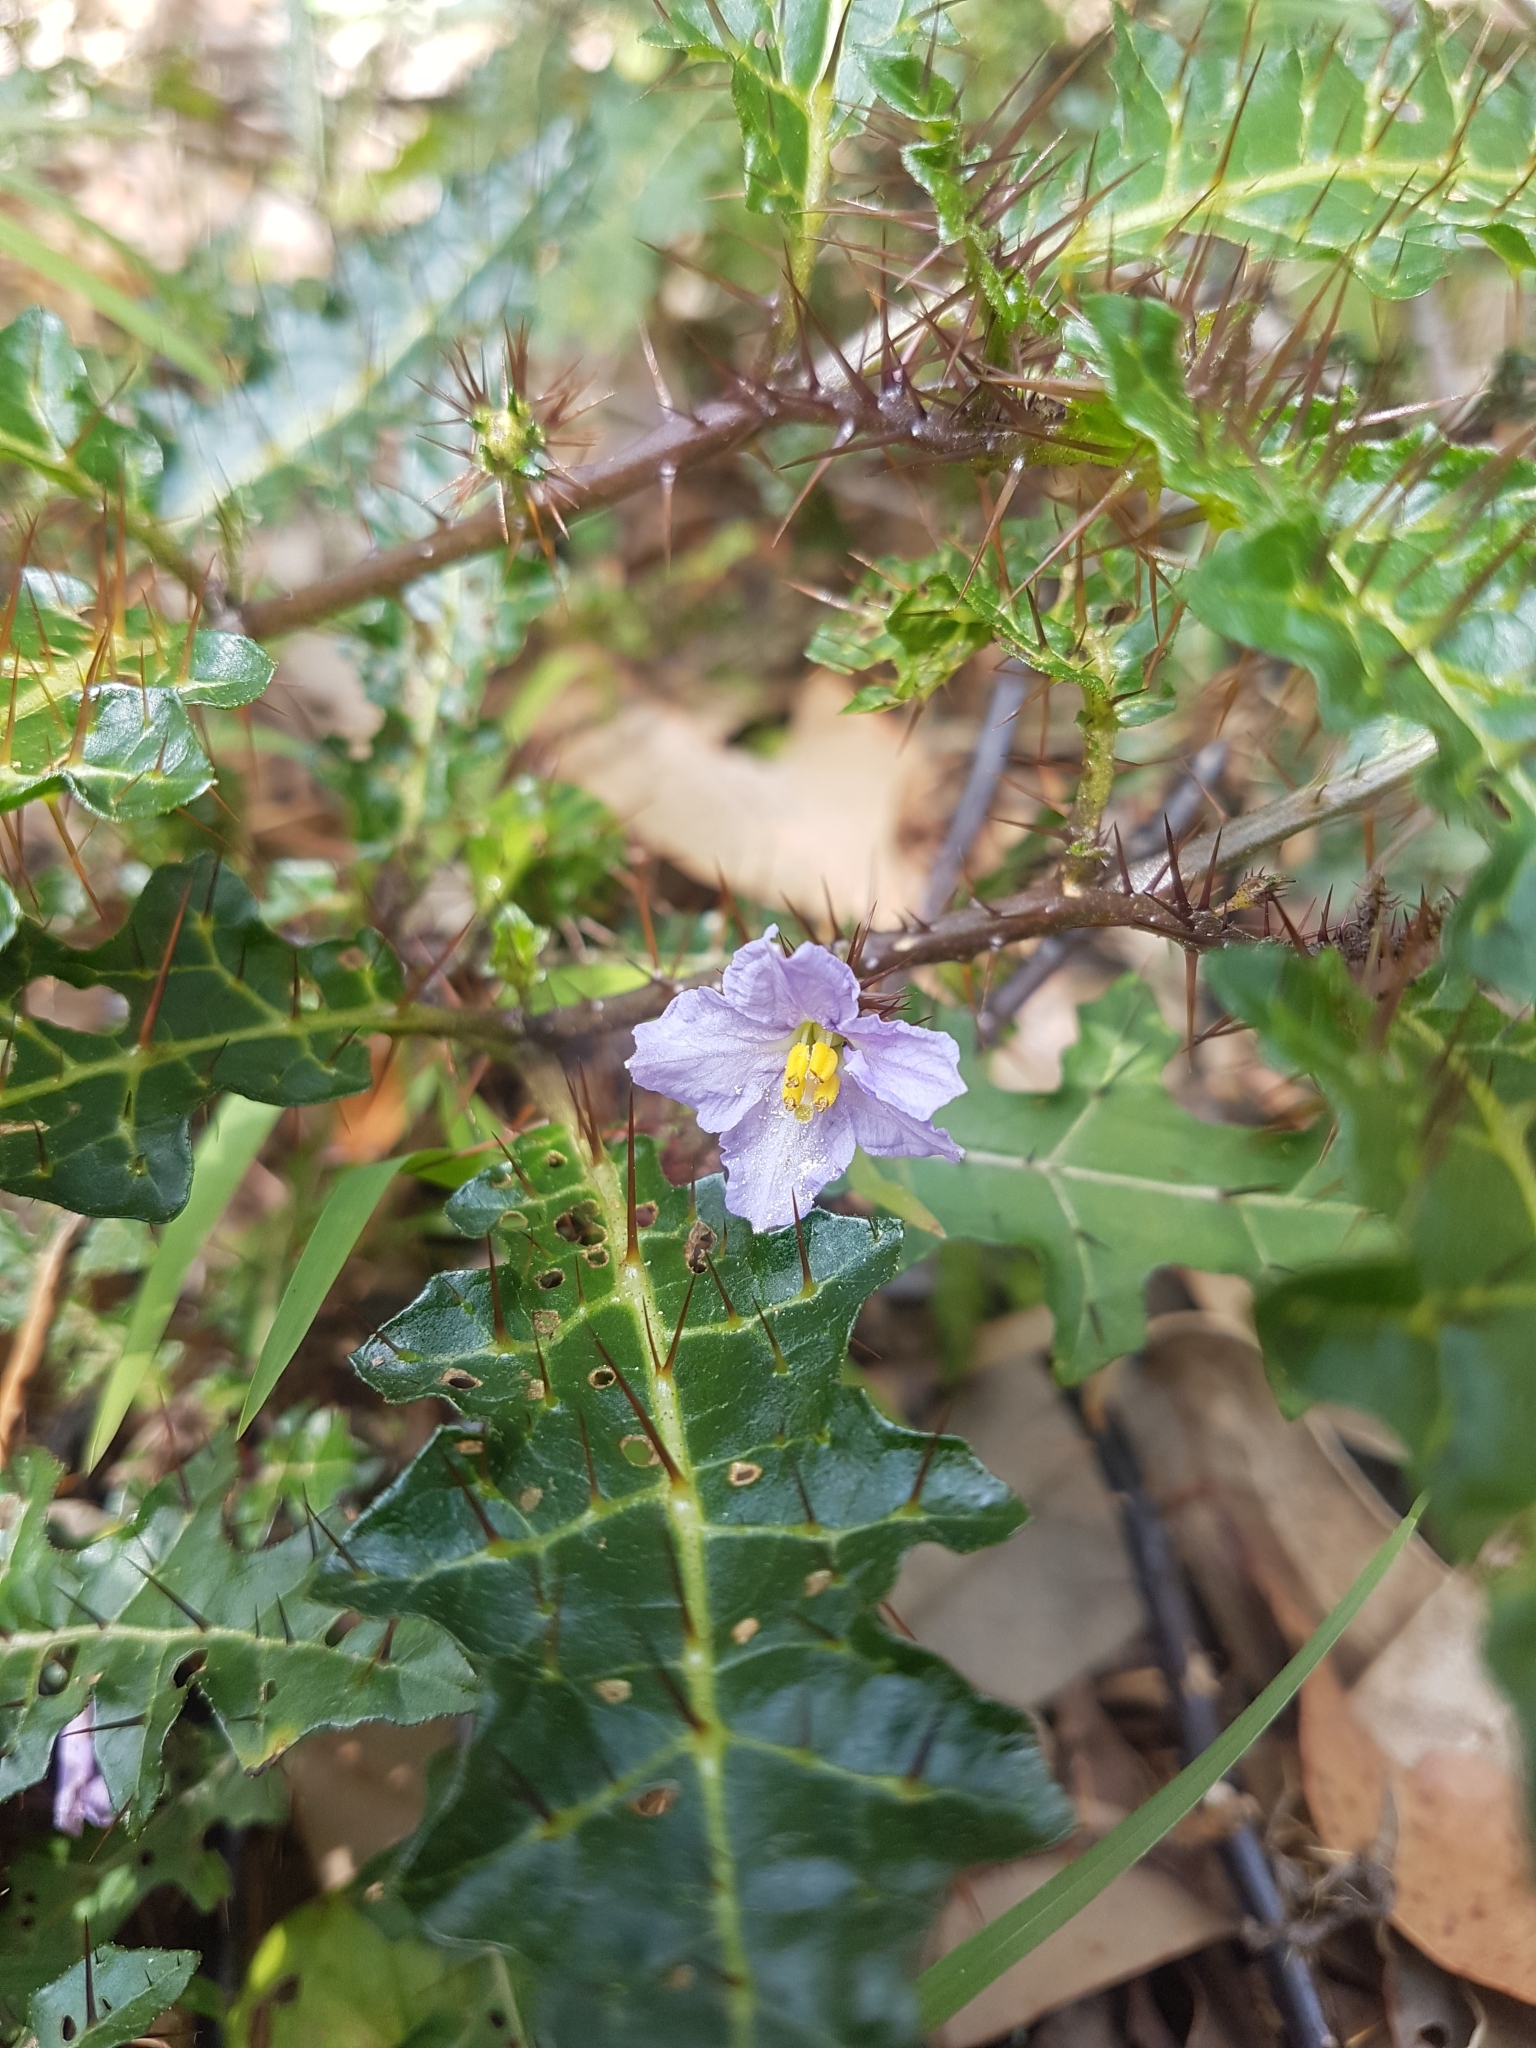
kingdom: Plantae
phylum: Tracheophyta
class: Magnoliopsida
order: Solanales
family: Solanaceae
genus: Solanum
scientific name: Solanum prinophyllum
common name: Forest nightshade
